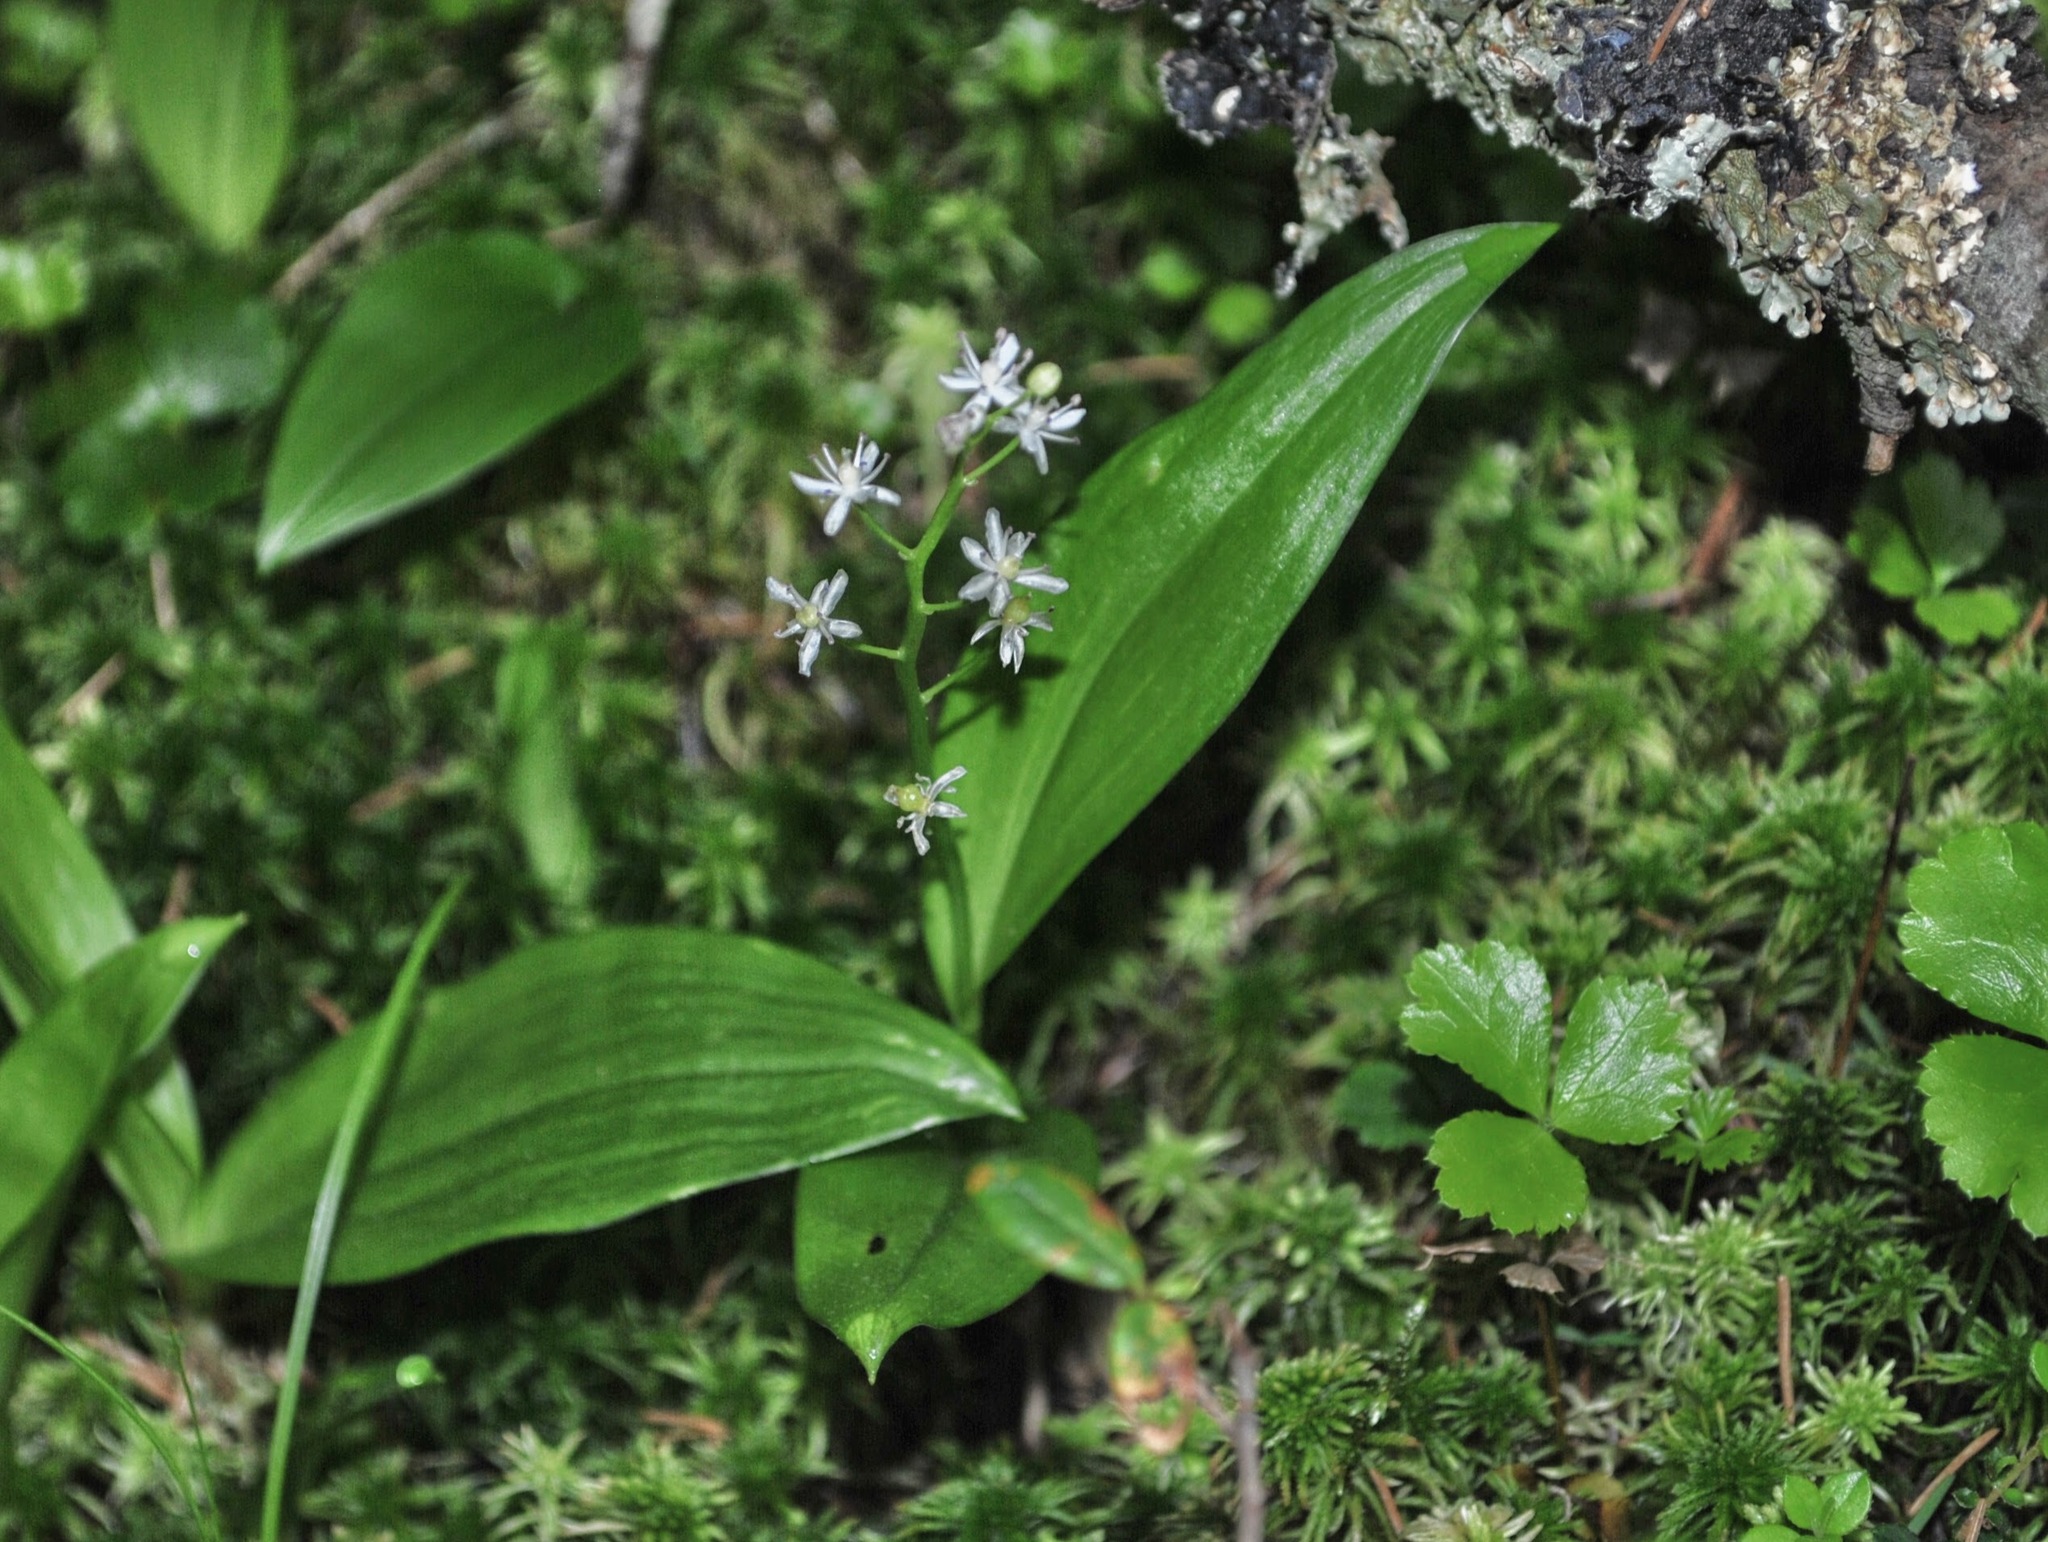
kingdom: Plantae
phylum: Tracheophyta
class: Liliopsida
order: Asparagales
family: Asparagaceae
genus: Maianthemum
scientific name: Maianthemum trifolium
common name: Swamp false solomon's seal
